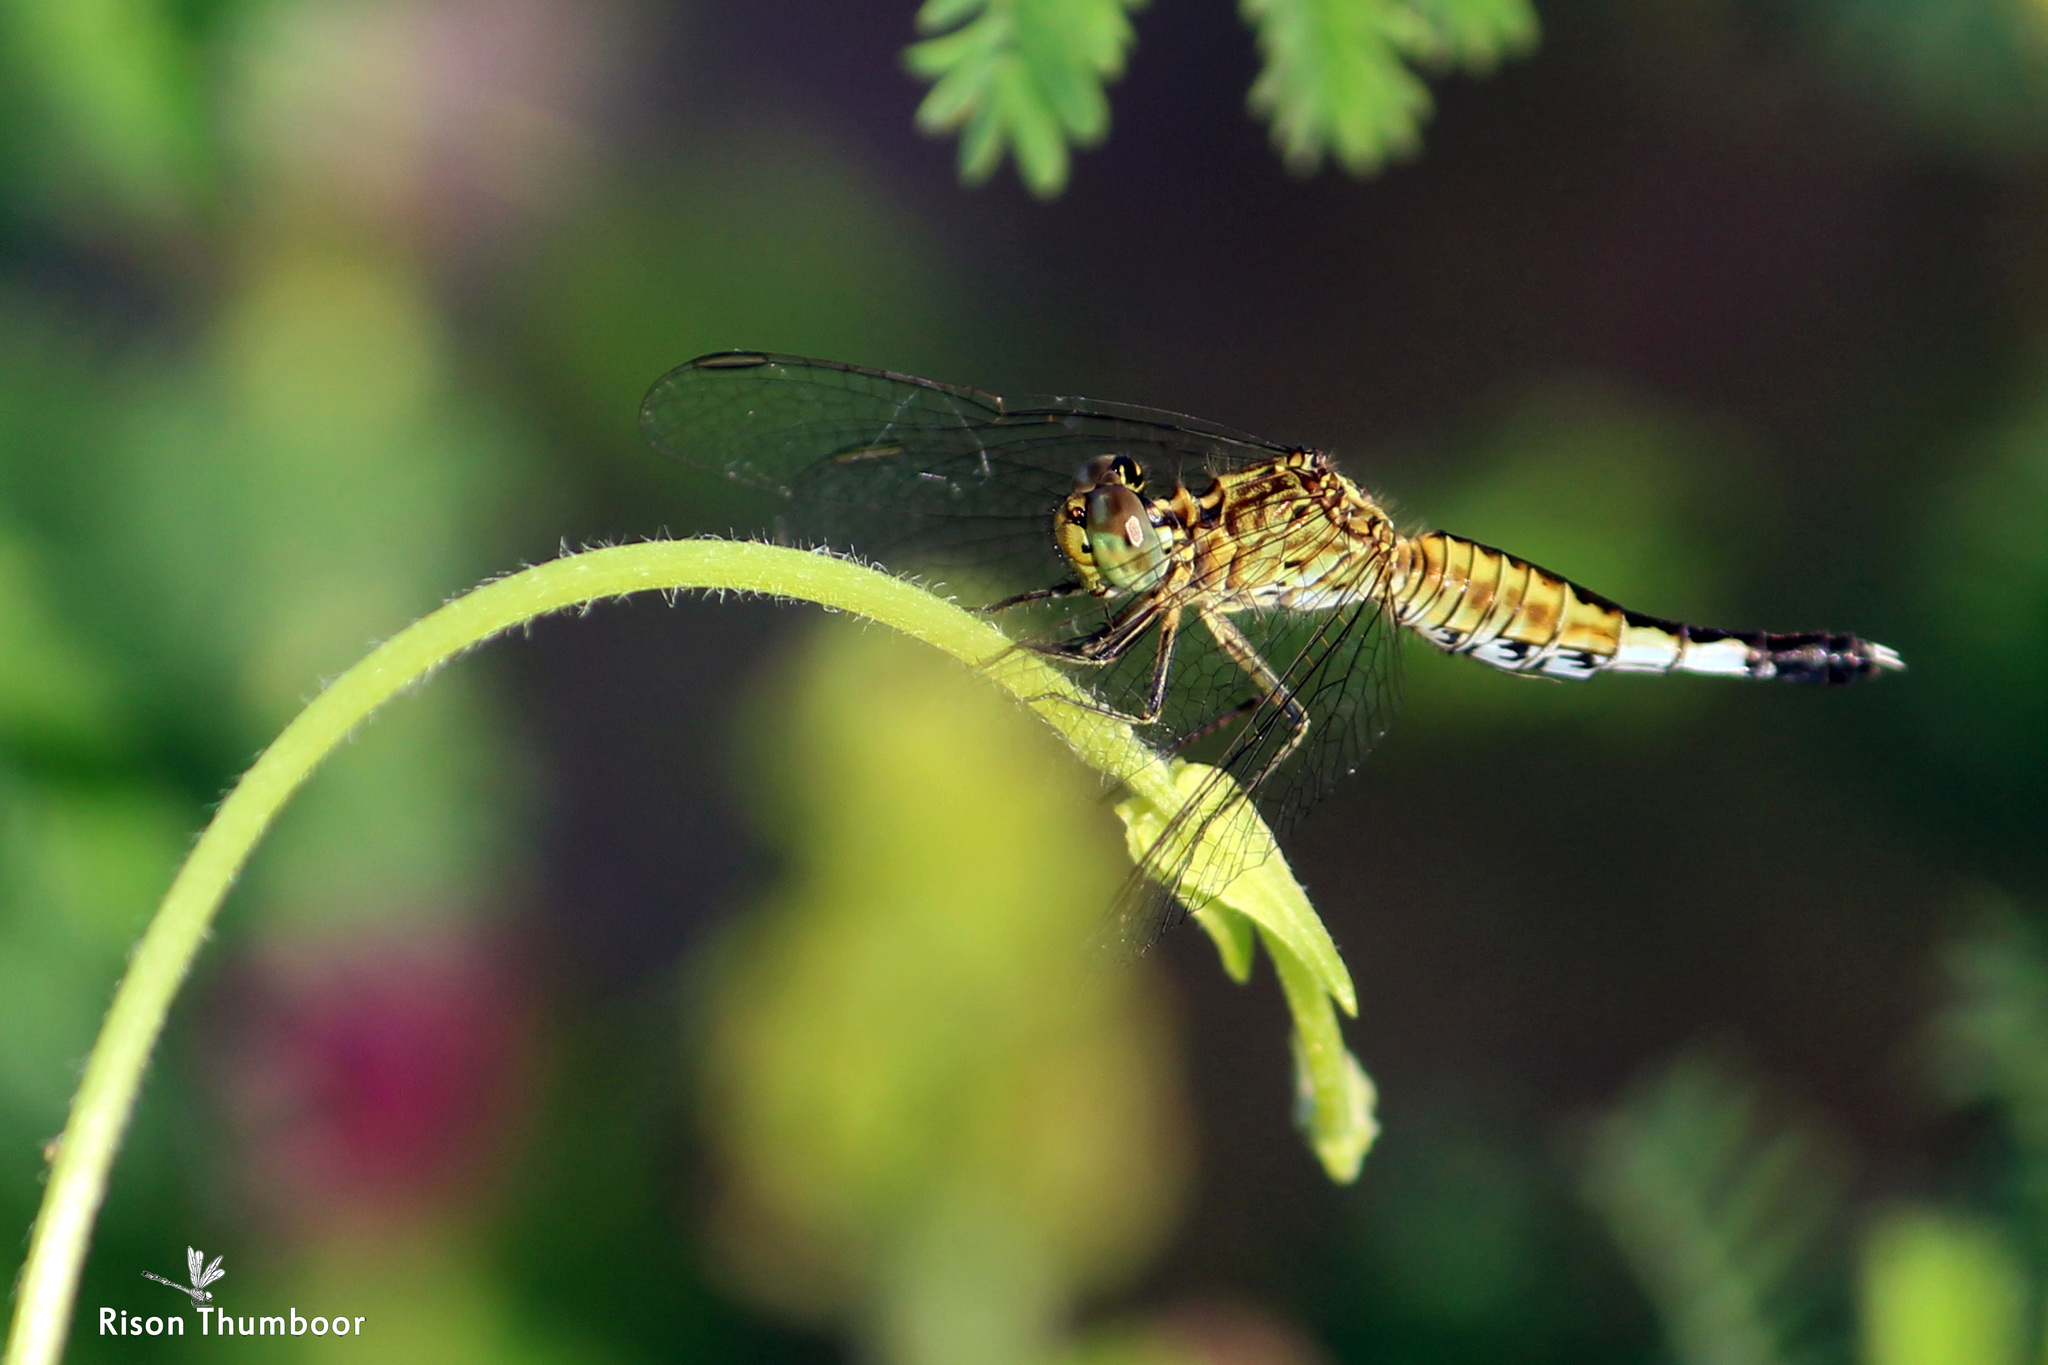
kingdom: Animalia
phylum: Arthropoda
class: Insecta
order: Odonata
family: Libellulidae
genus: Acisoma
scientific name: Acisoma panorpoides
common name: Asian pintail
